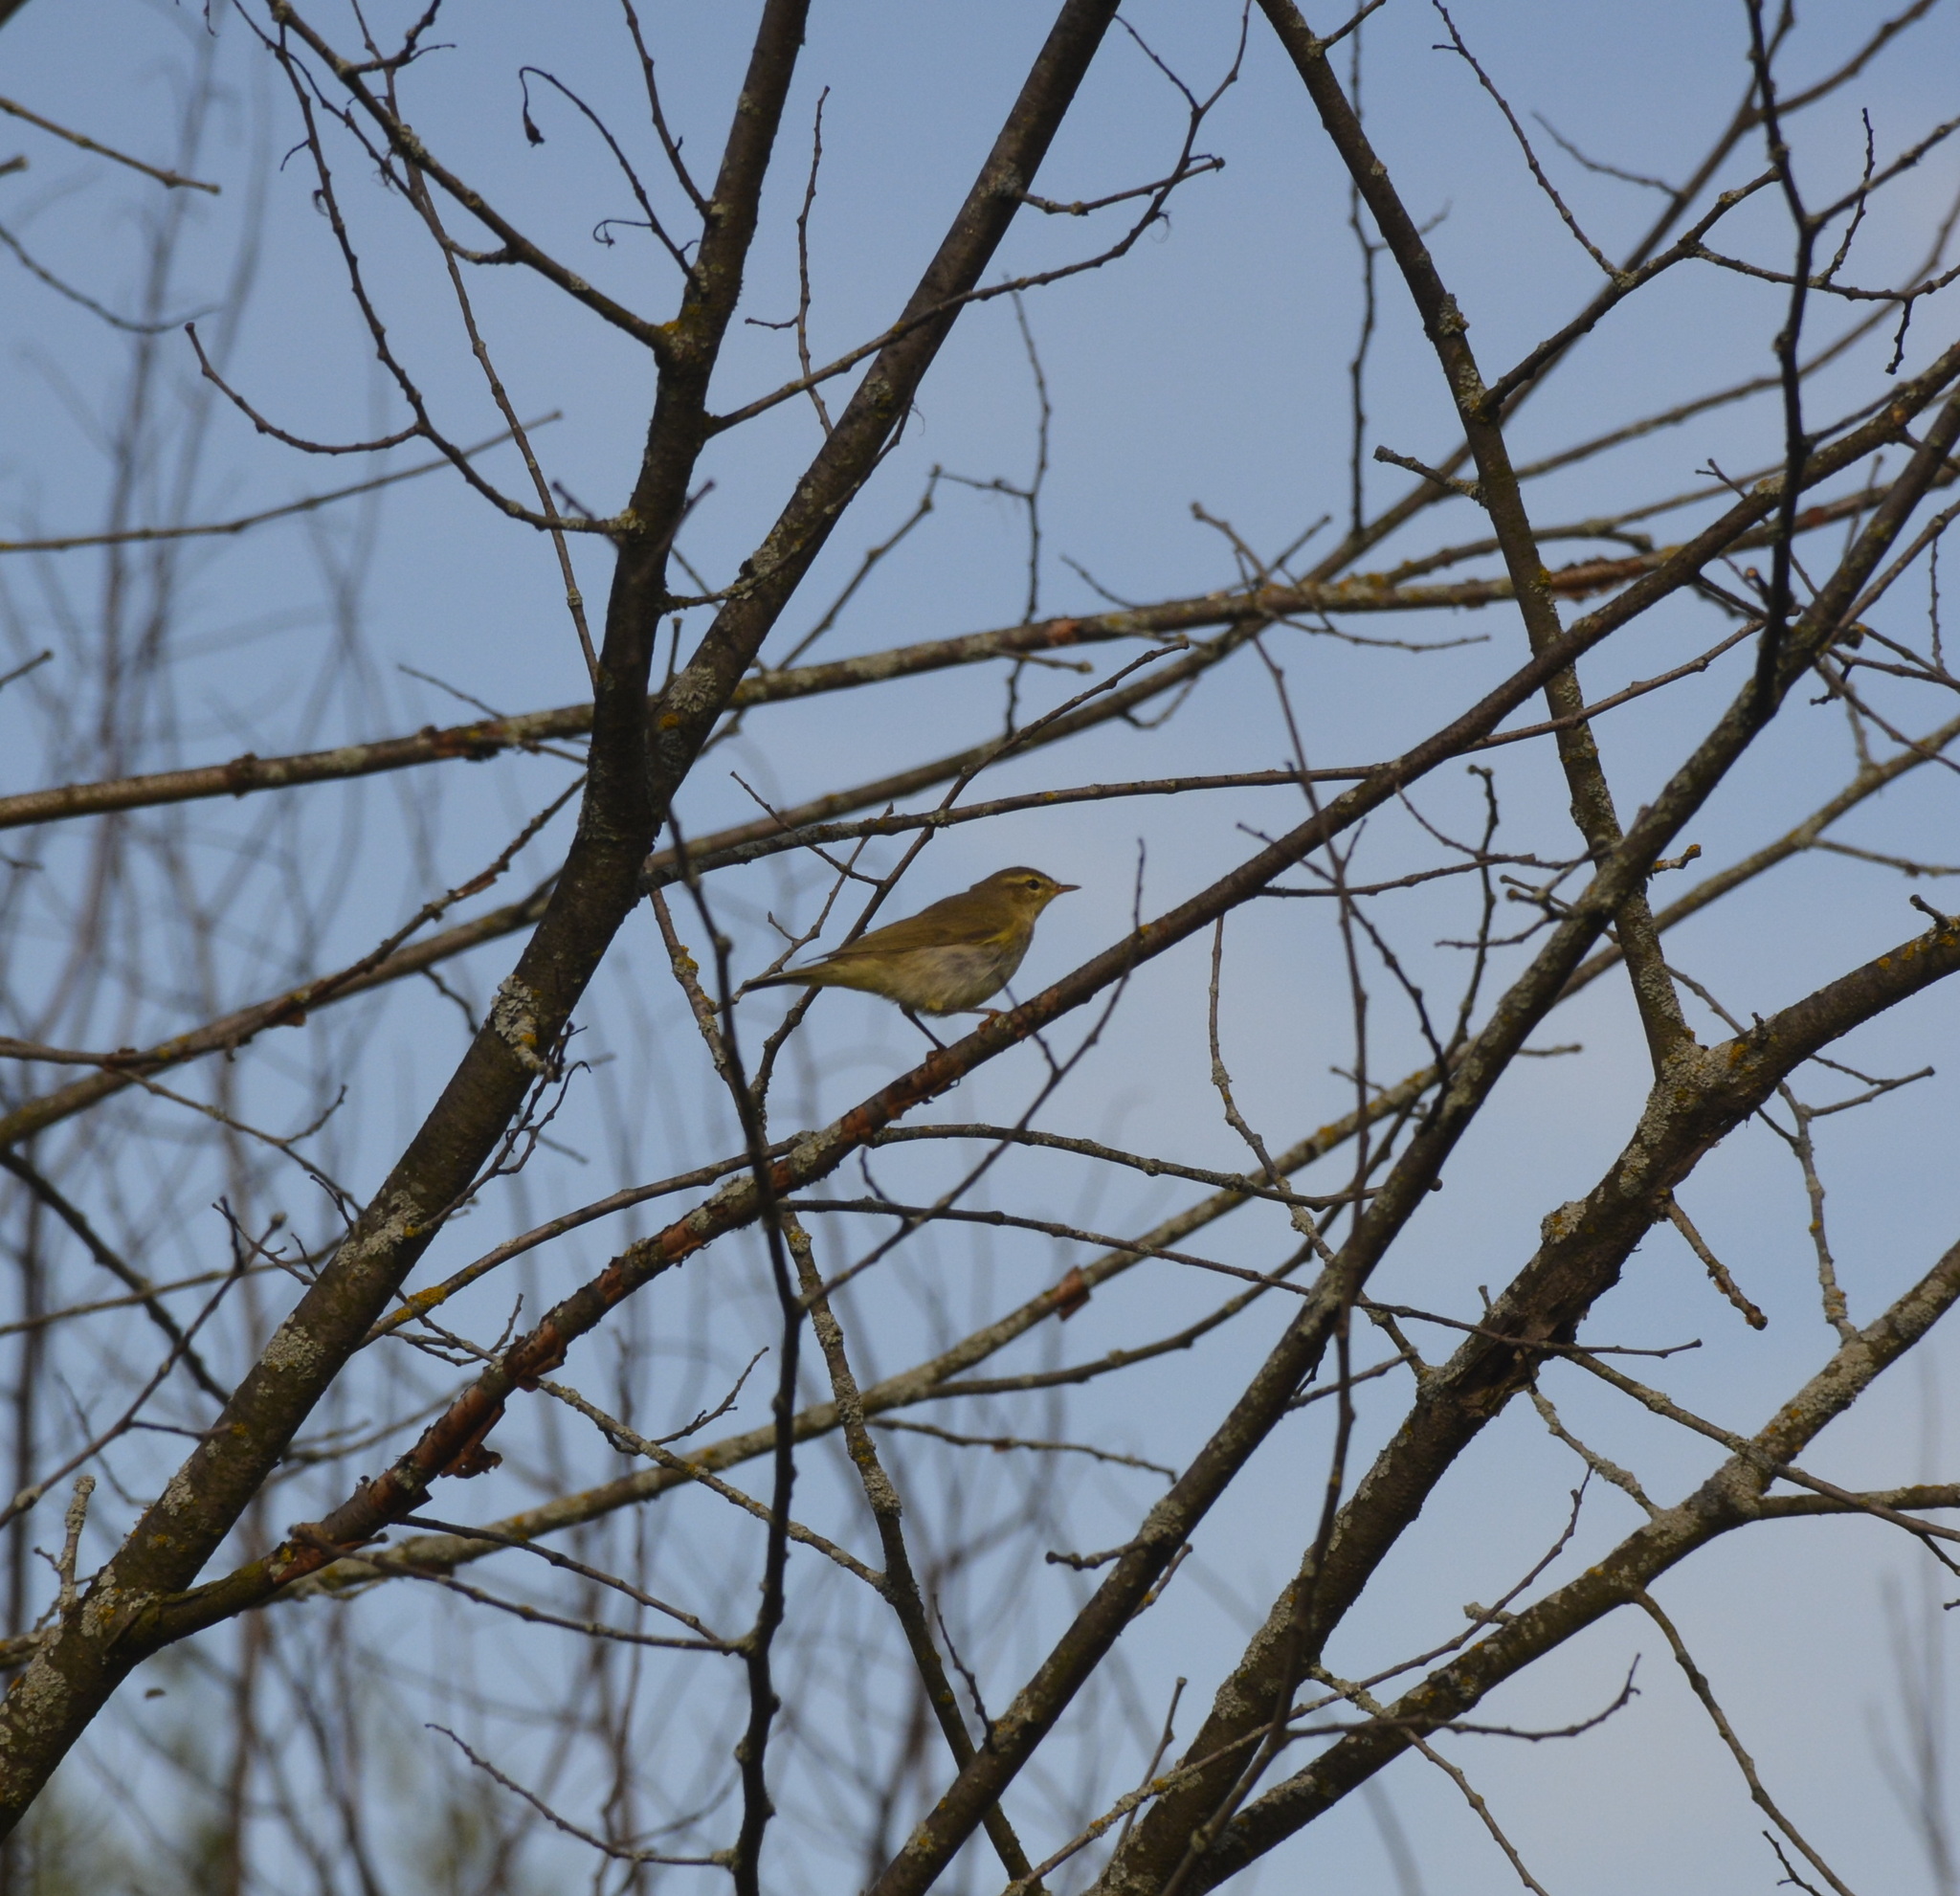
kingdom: Animalia
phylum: Chordata
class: Aves
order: Passeriformes
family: Phylloscopidae
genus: Phylloscopus
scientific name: Phylloscopus trochilus
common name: Willow warbler
